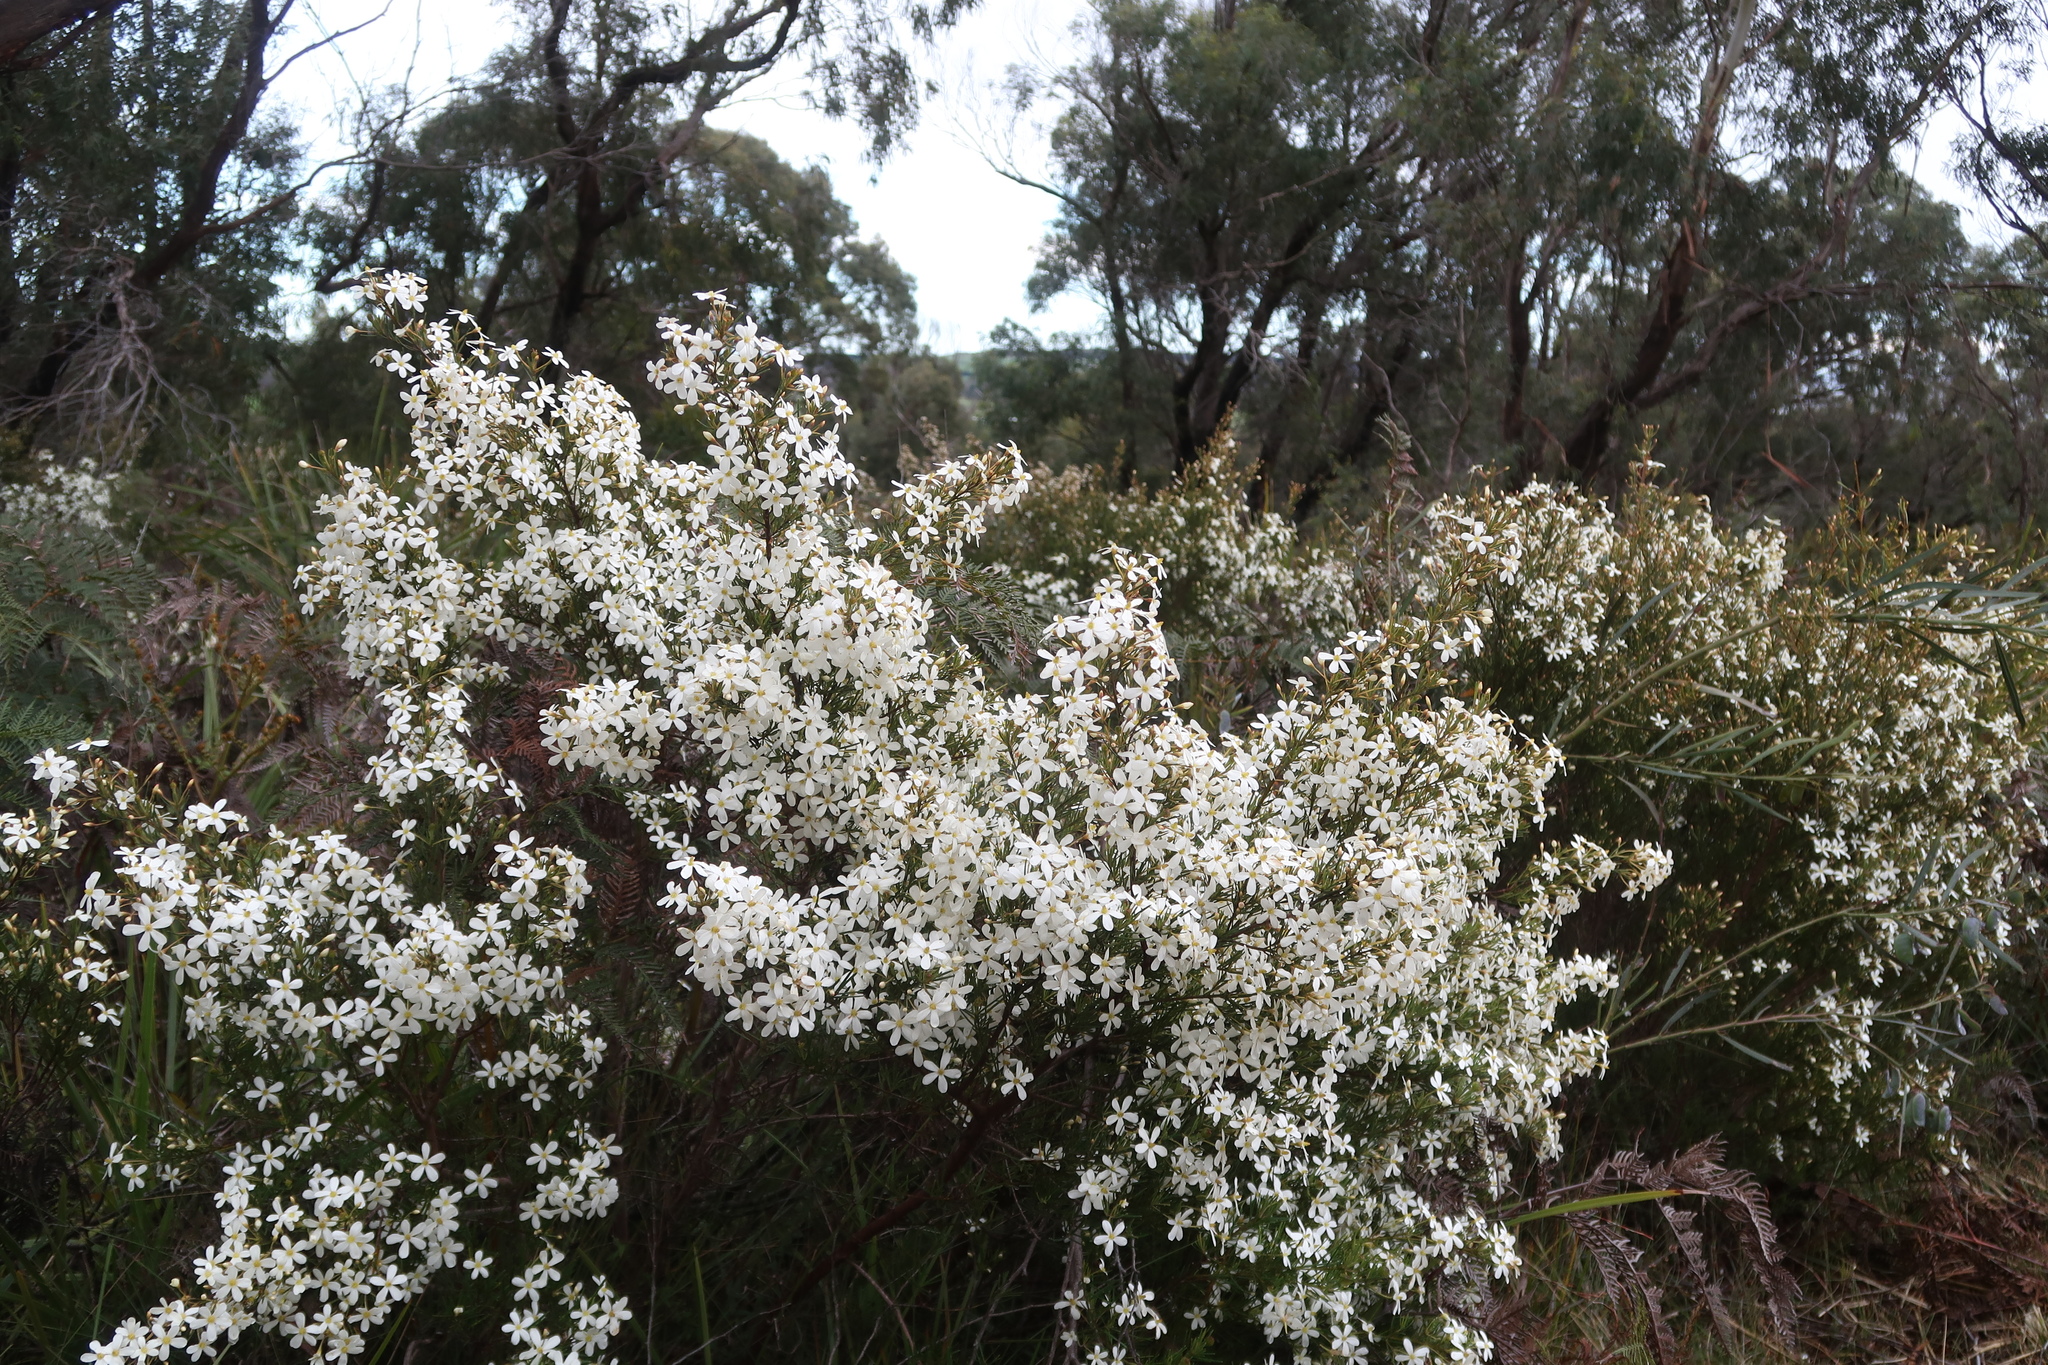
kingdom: Plantae
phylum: Tracheophyta
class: Magnoliopsida
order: Malpighiales
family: Euphorbiaceae
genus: Ricinocarpos
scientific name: Ricinocarpos pinifolius
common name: Weddingbush
